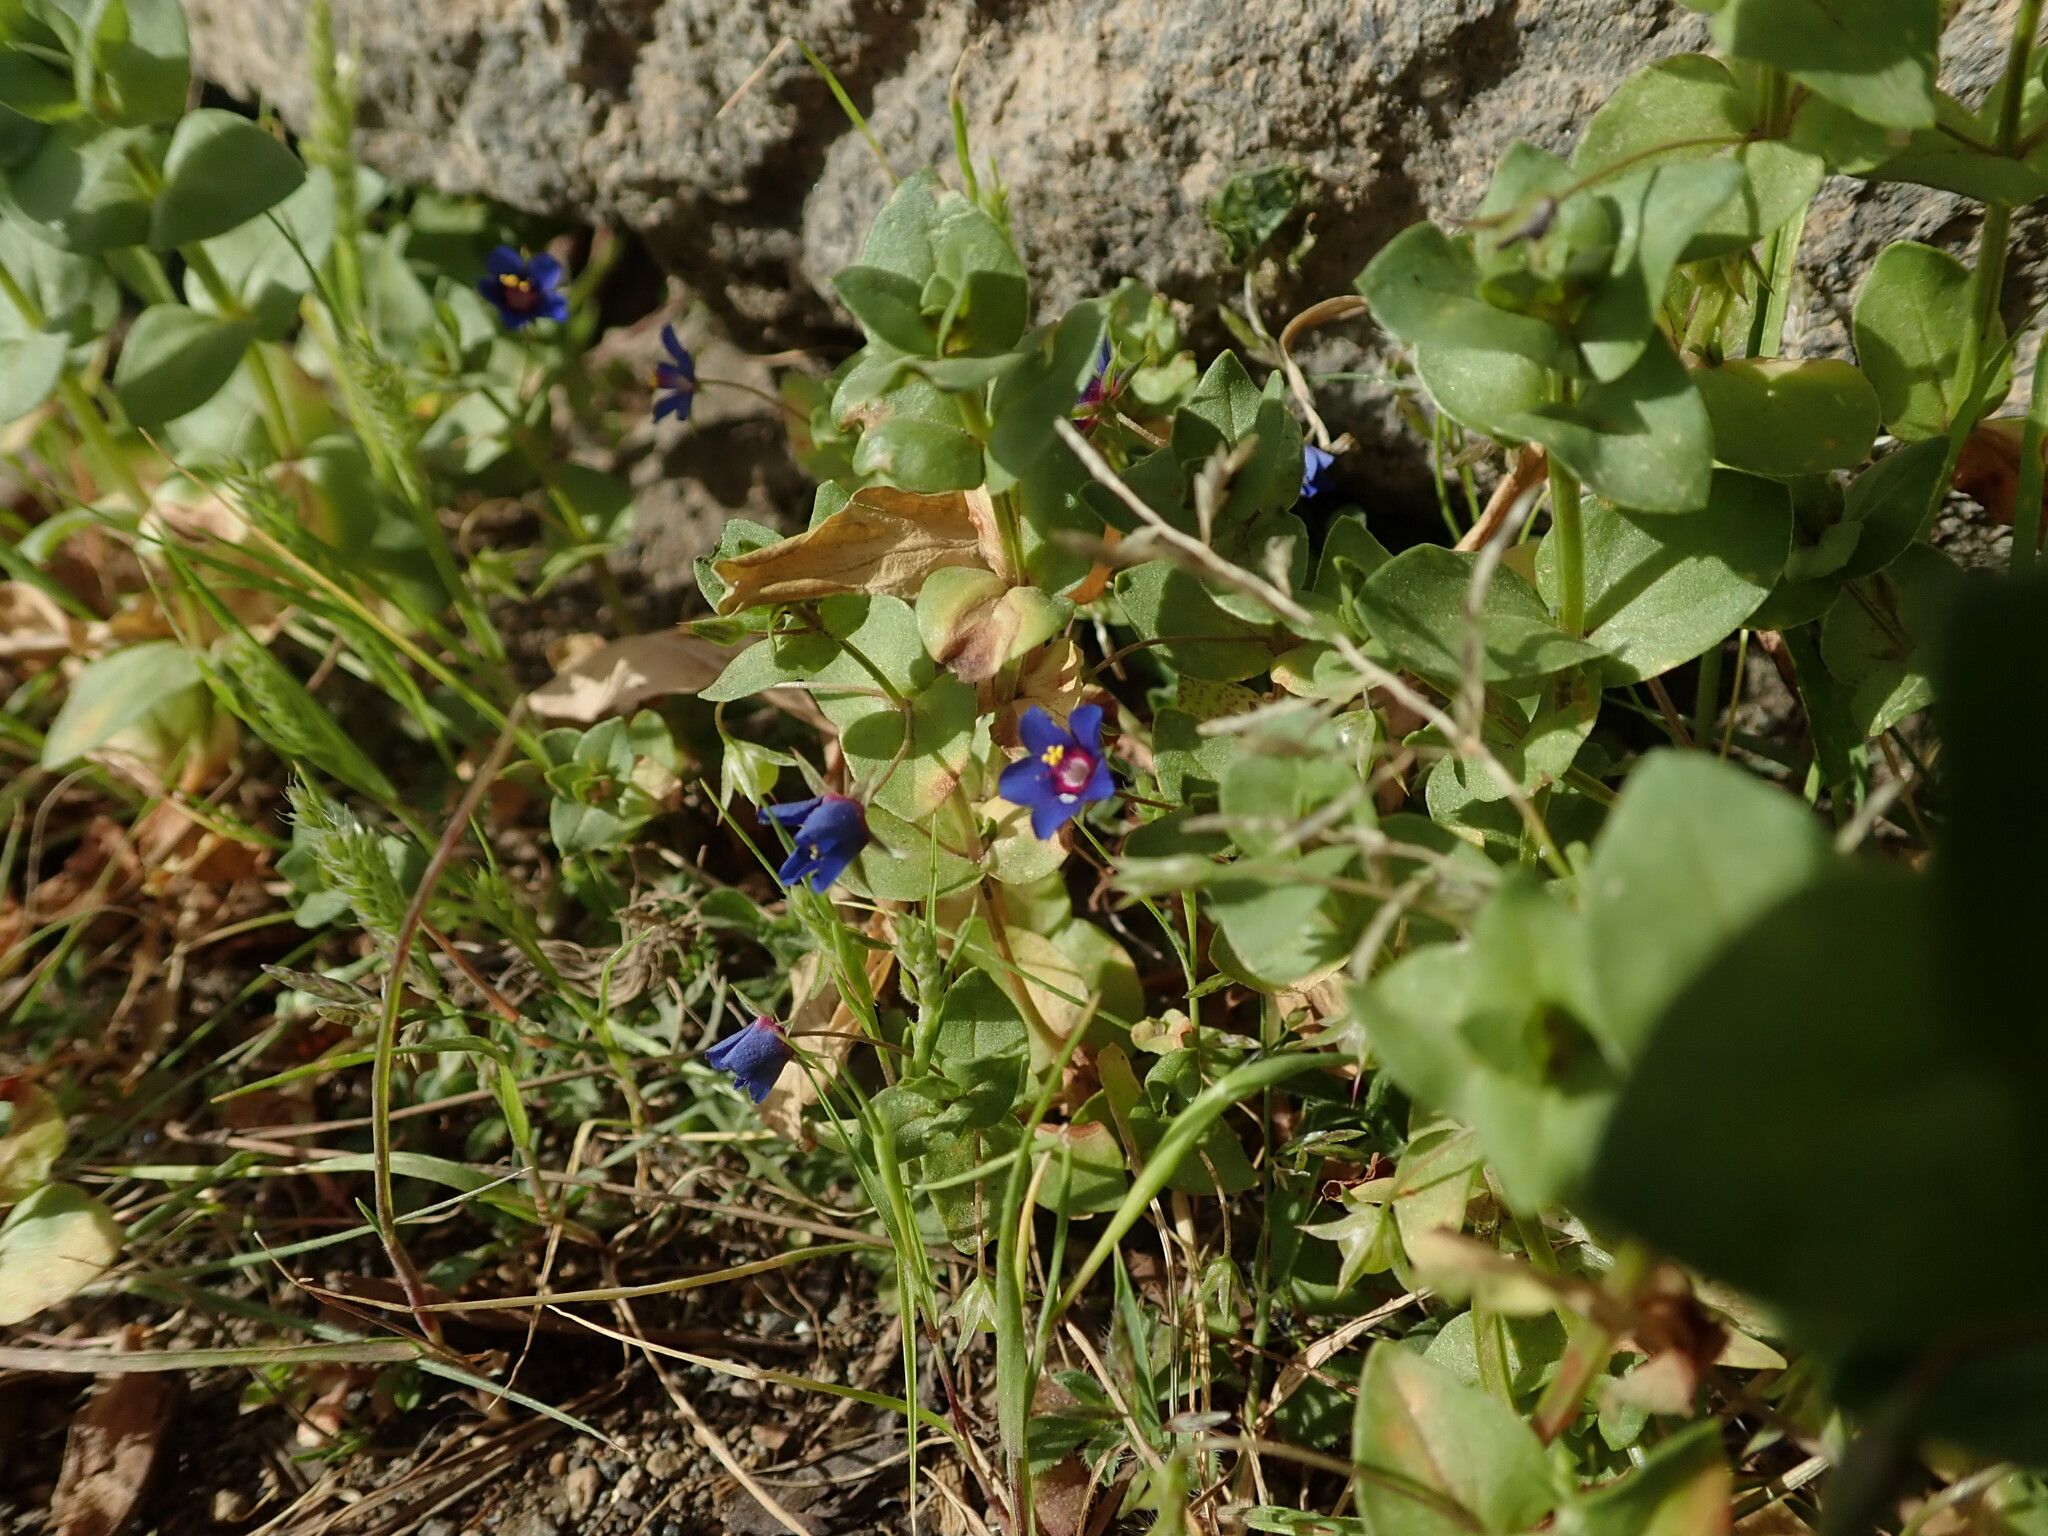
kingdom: Plantae
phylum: Tracheophyta
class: Magnoliopsida
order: Ericales
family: Primulaceae
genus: Lysimachia
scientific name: Lysimachia loeflingii
